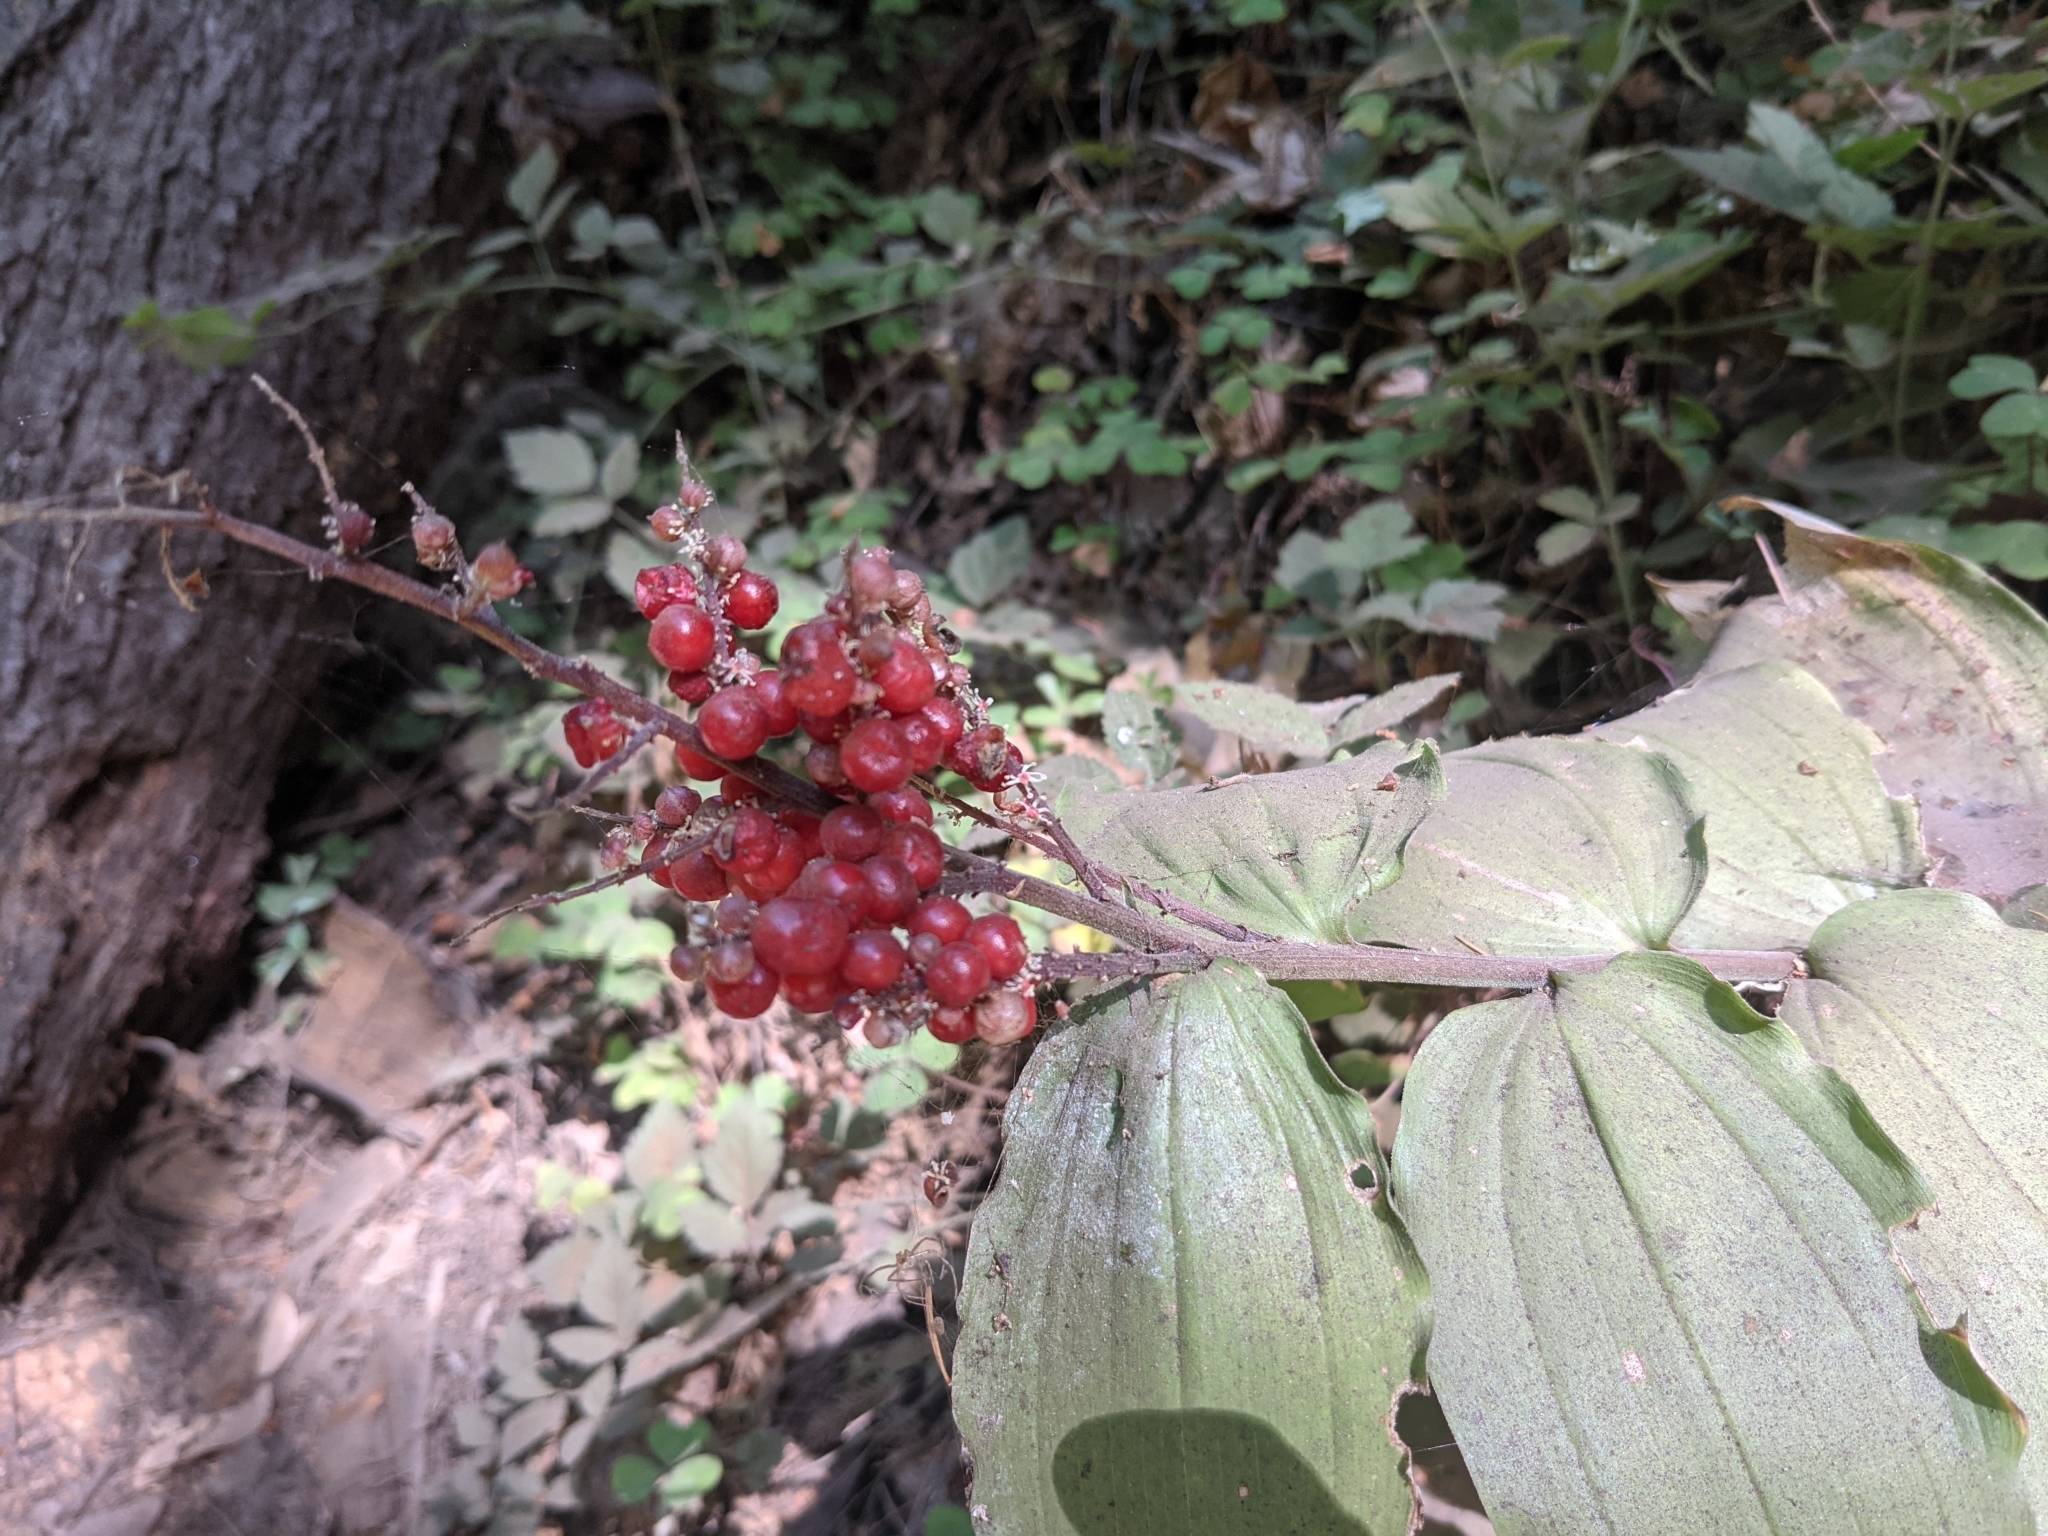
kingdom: Plantae
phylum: Tracheophyta
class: Liliopsida
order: Asparagales
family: Asparagaceae
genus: Maianthemum
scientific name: Maianthemum racemosum
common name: False spikenard
